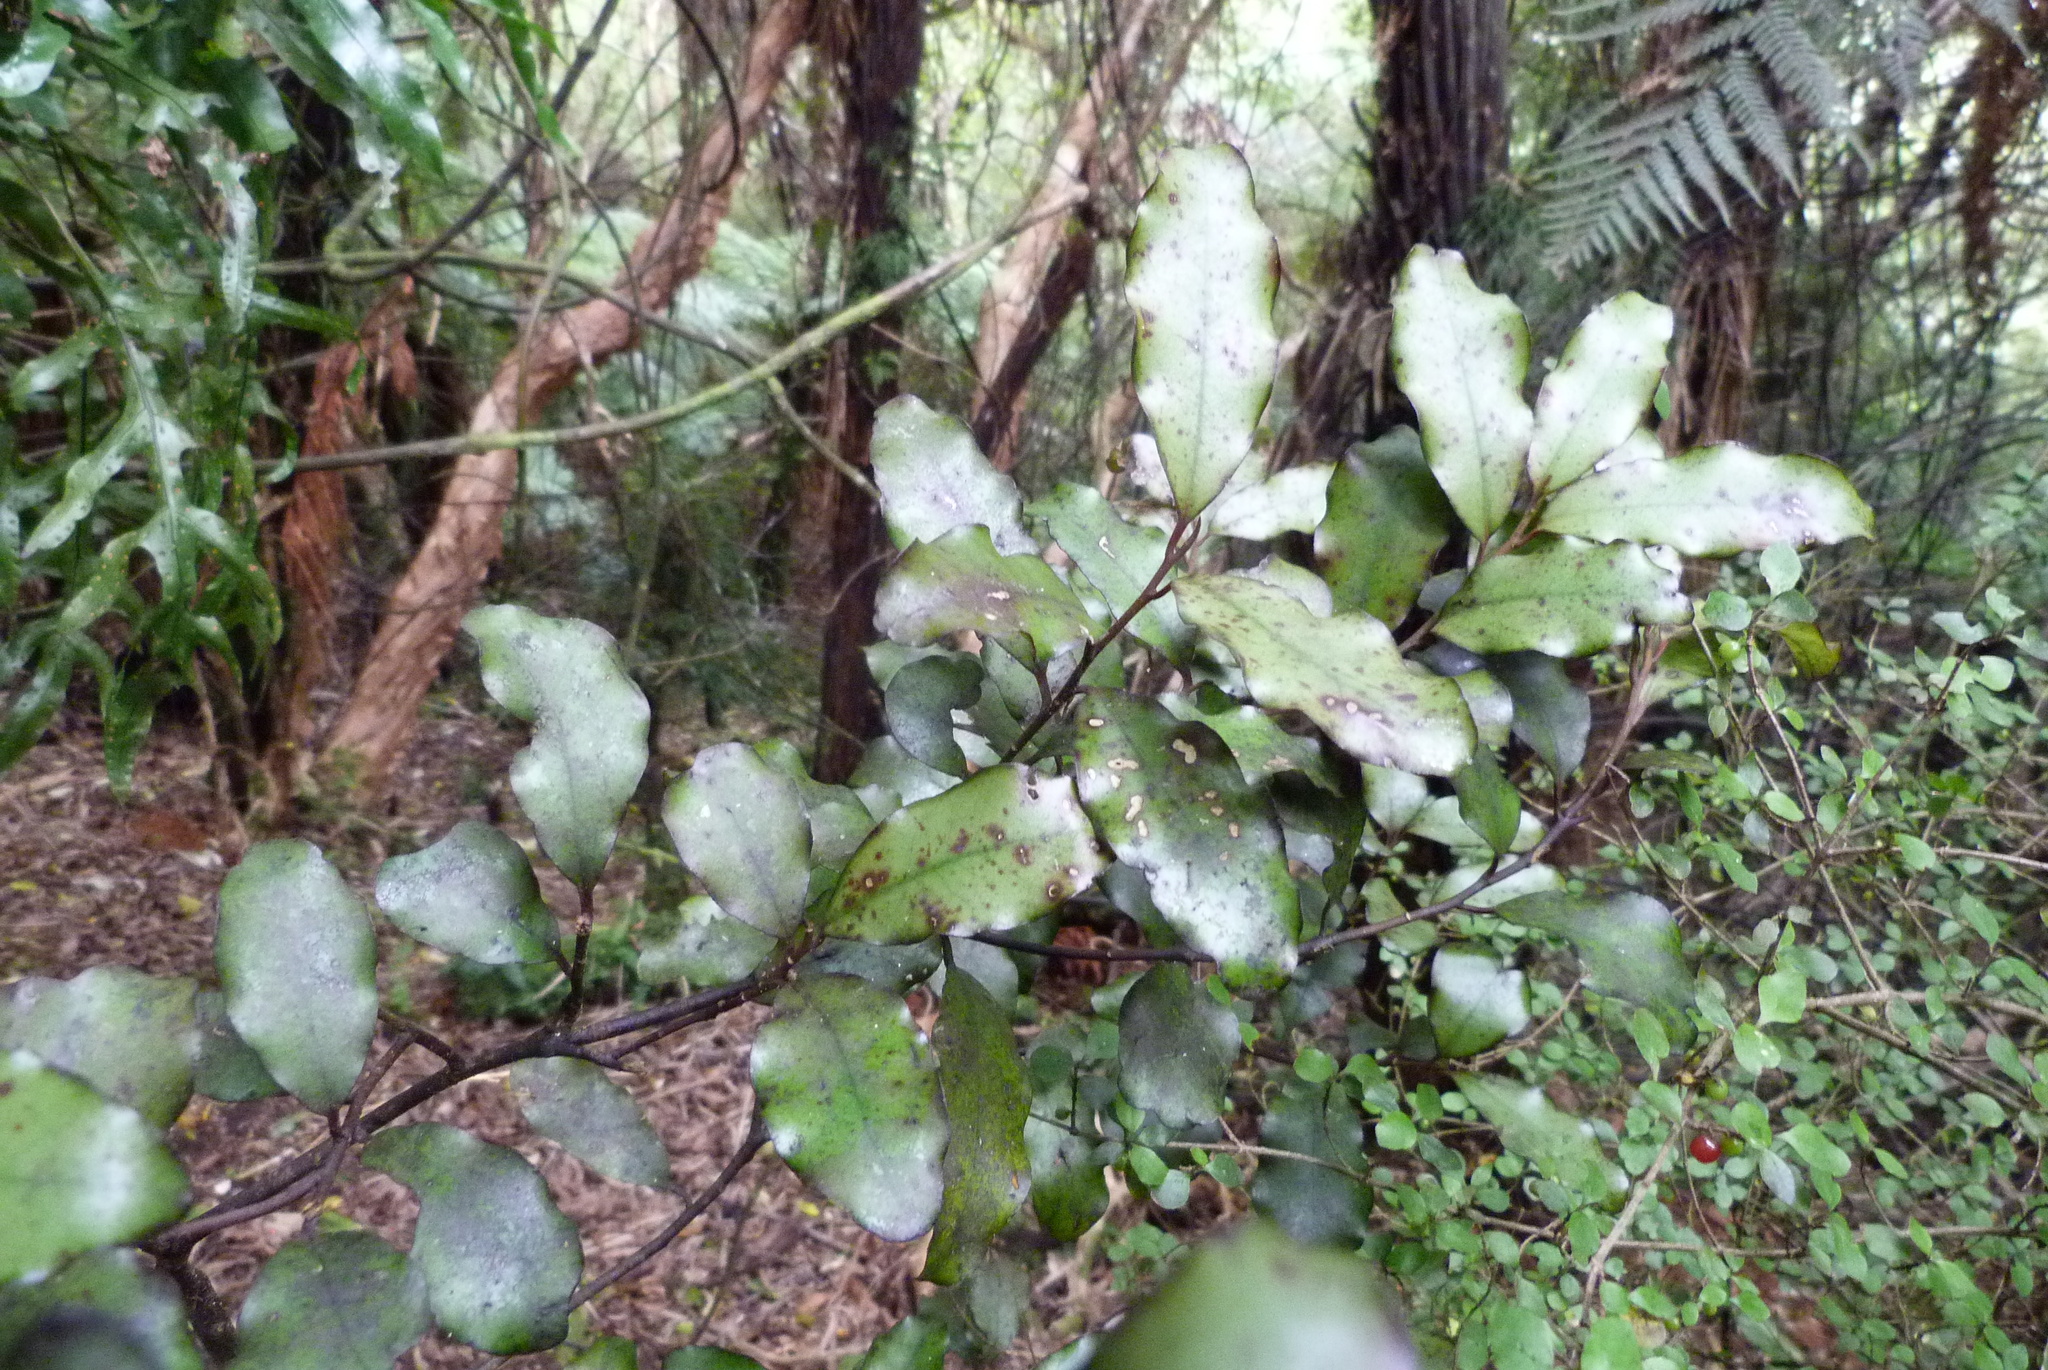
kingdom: Plantae
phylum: Tracheophyta
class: Magnoliopsida
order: Canellales
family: Winteraceae
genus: Pseudowintera
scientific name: Pseudowintera colorata
